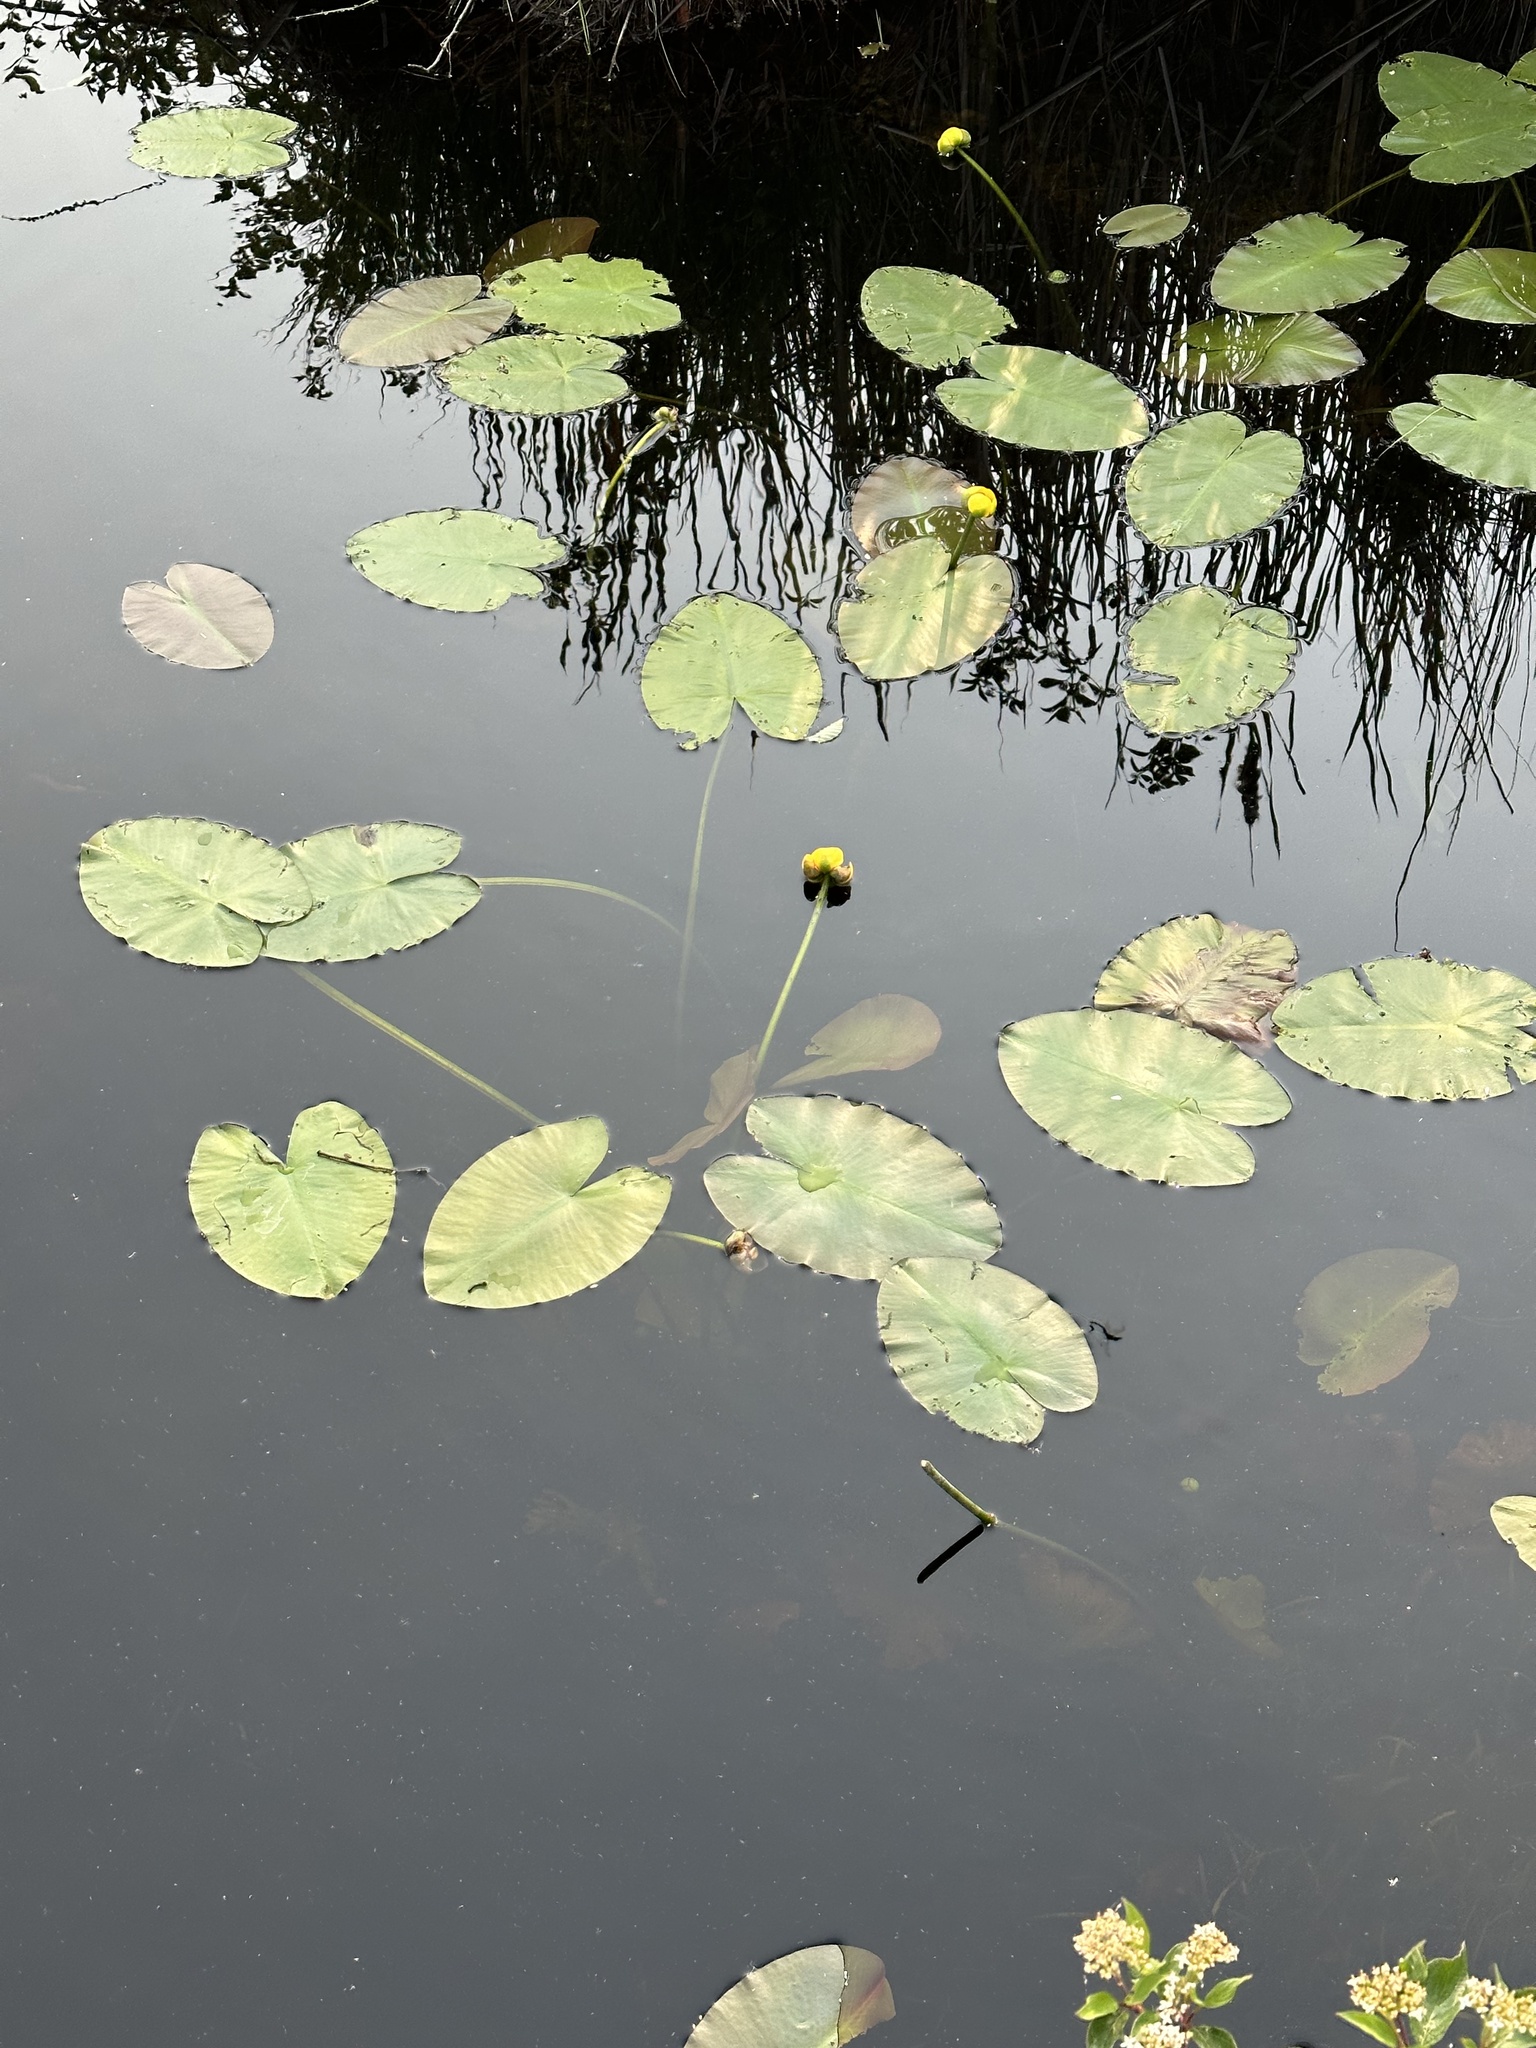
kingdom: Plantae
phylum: Tracheophyta
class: Magnoliopsida
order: Nymphaeales
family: Nymphaeaceae
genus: Nuphar
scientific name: Nuphar variegata
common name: Beaver-root
